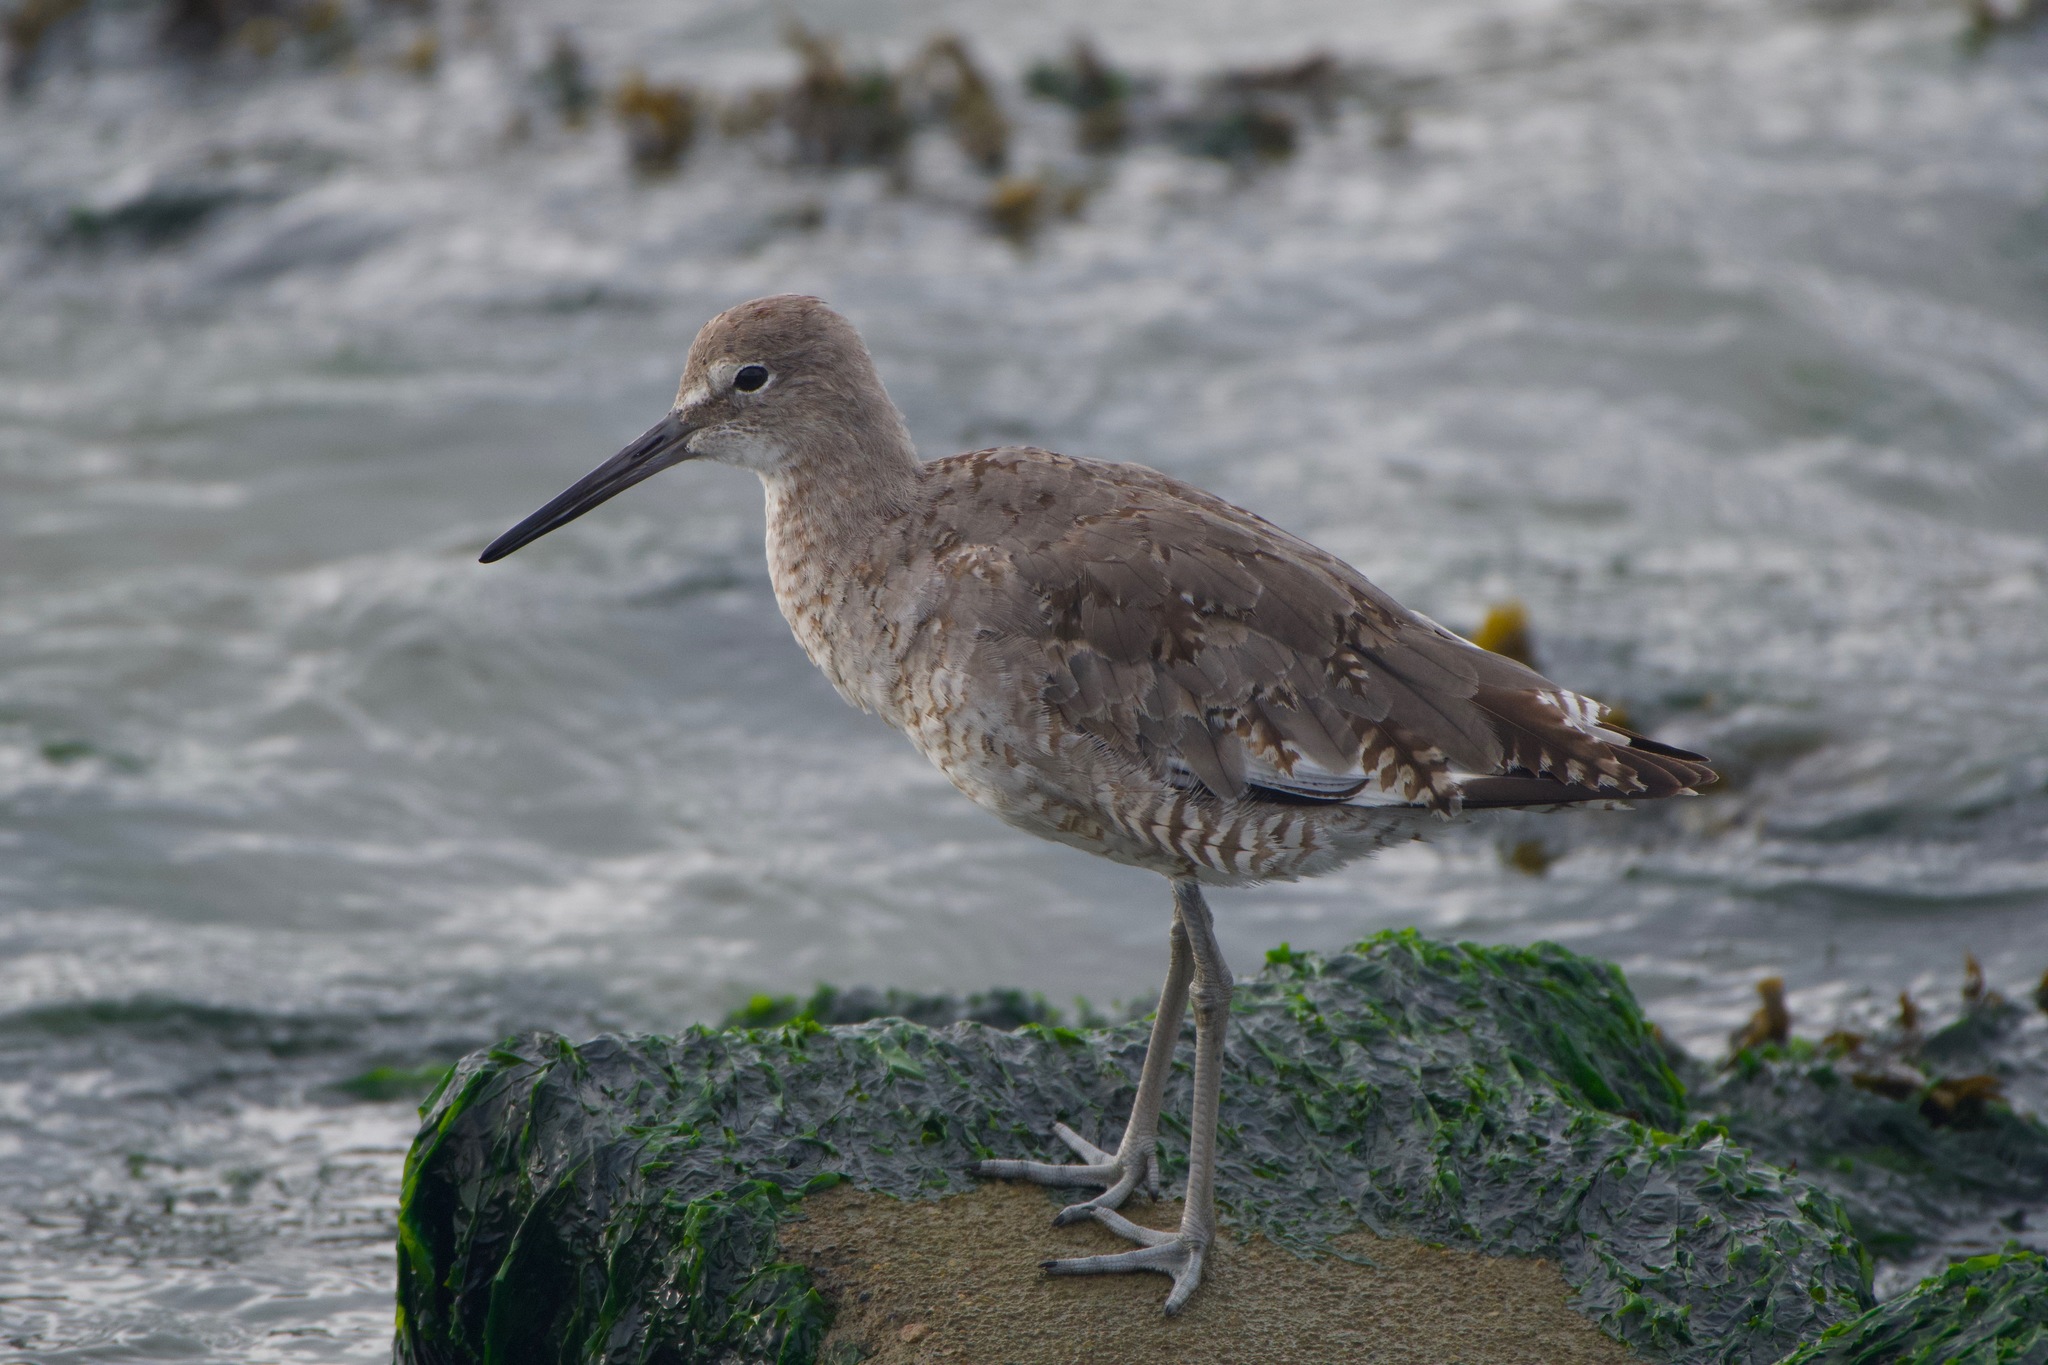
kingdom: Animalia
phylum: Chordata
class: Aves
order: Charadriiformes
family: Scolopacidae
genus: Tringa
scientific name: Tringa semipalmata
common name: Willet
